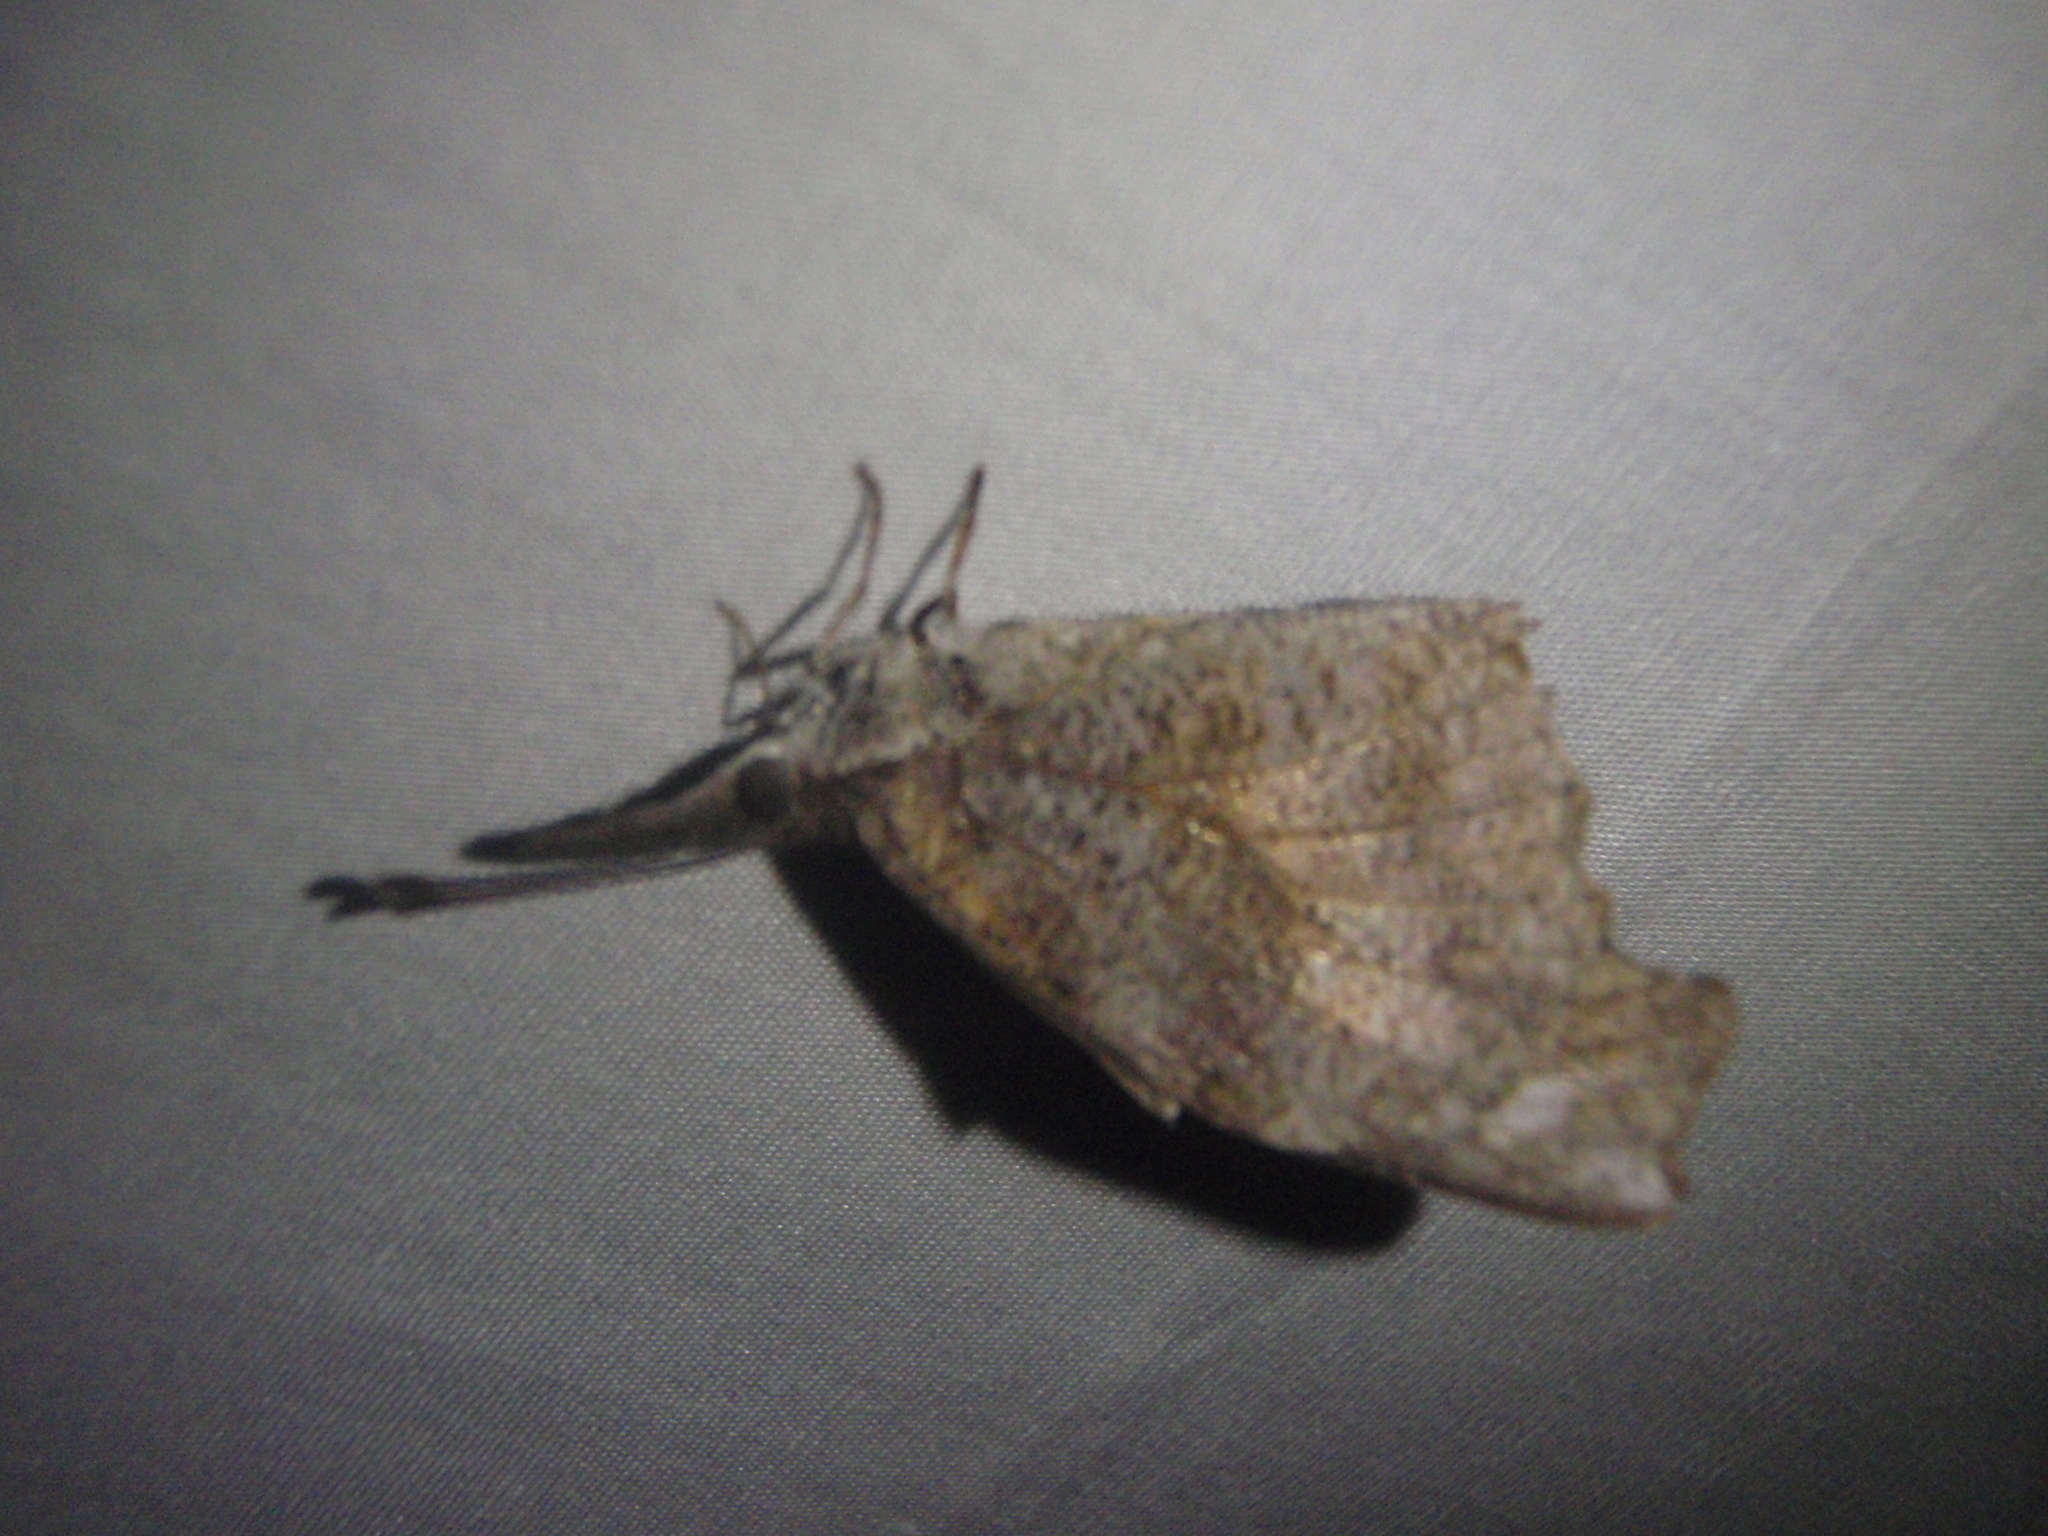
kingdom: Animalia
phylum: Arthropoda
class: Insecta
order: Lepidoptera
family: Nymphalidae
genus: Libytheana
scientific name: Libytheana carinenta
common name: American snout
